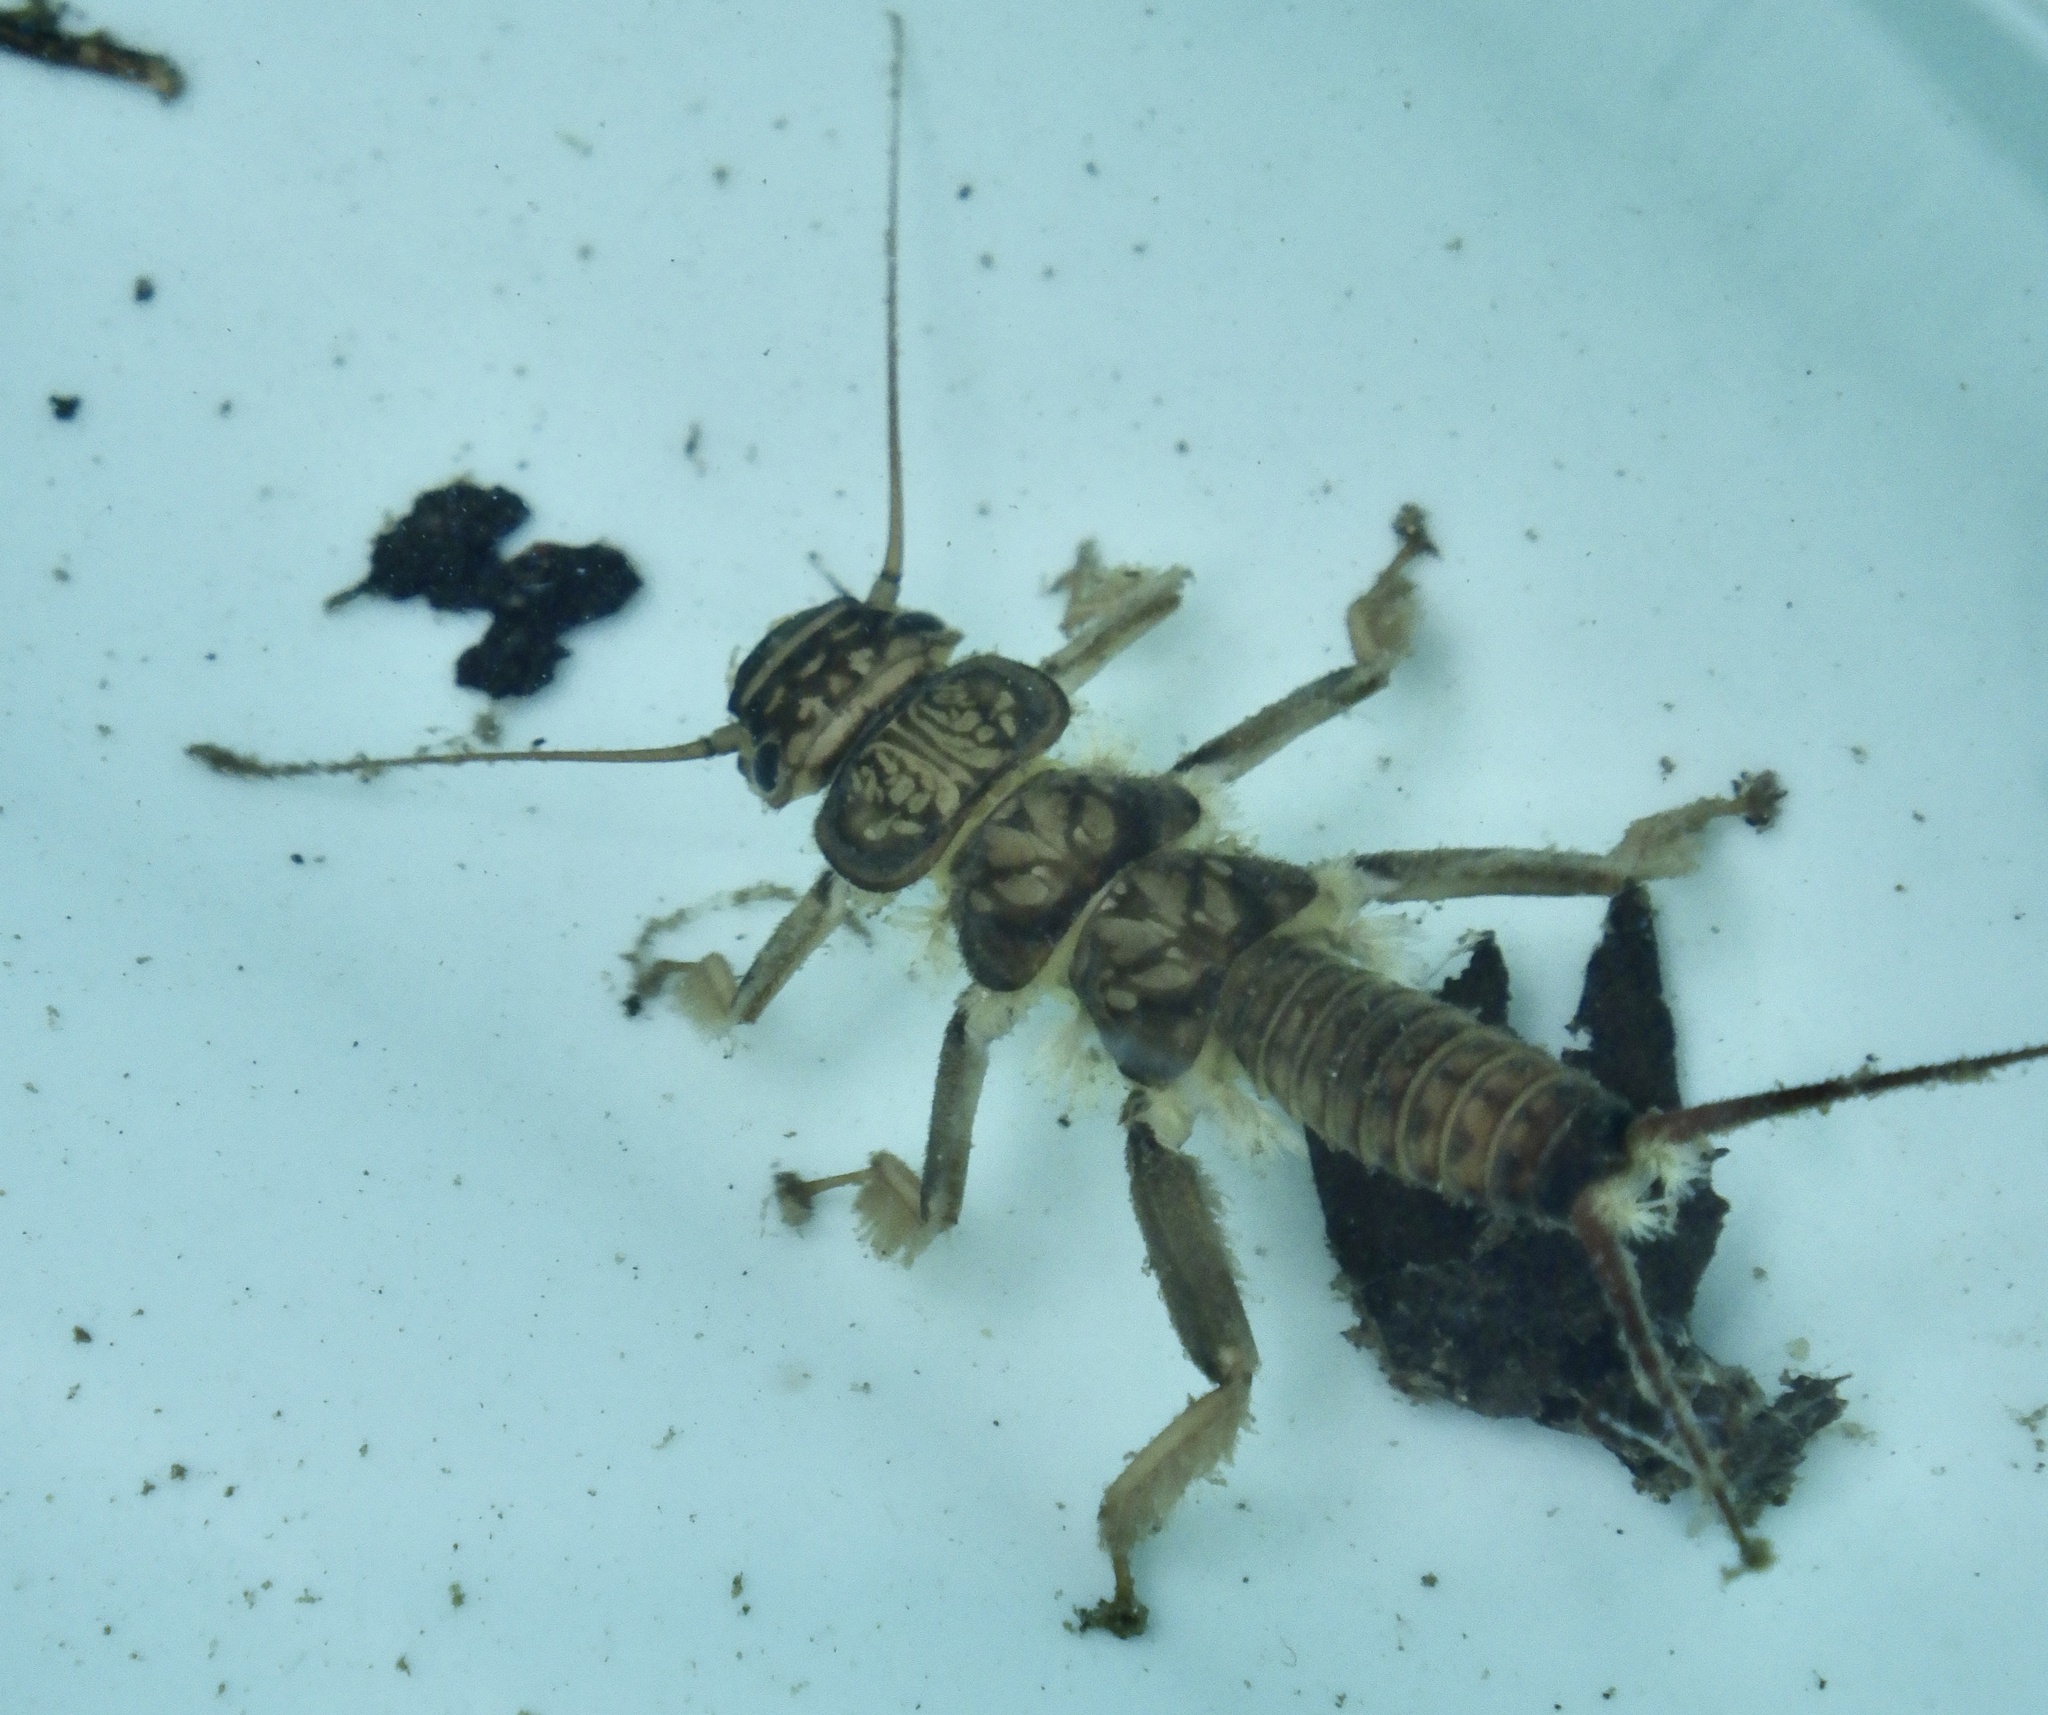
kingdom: Animalia
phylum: Arthropoda
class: Insecta
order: Plecoptera
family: Perlidae
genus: Oyamia
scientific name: Oyamia lugubris
